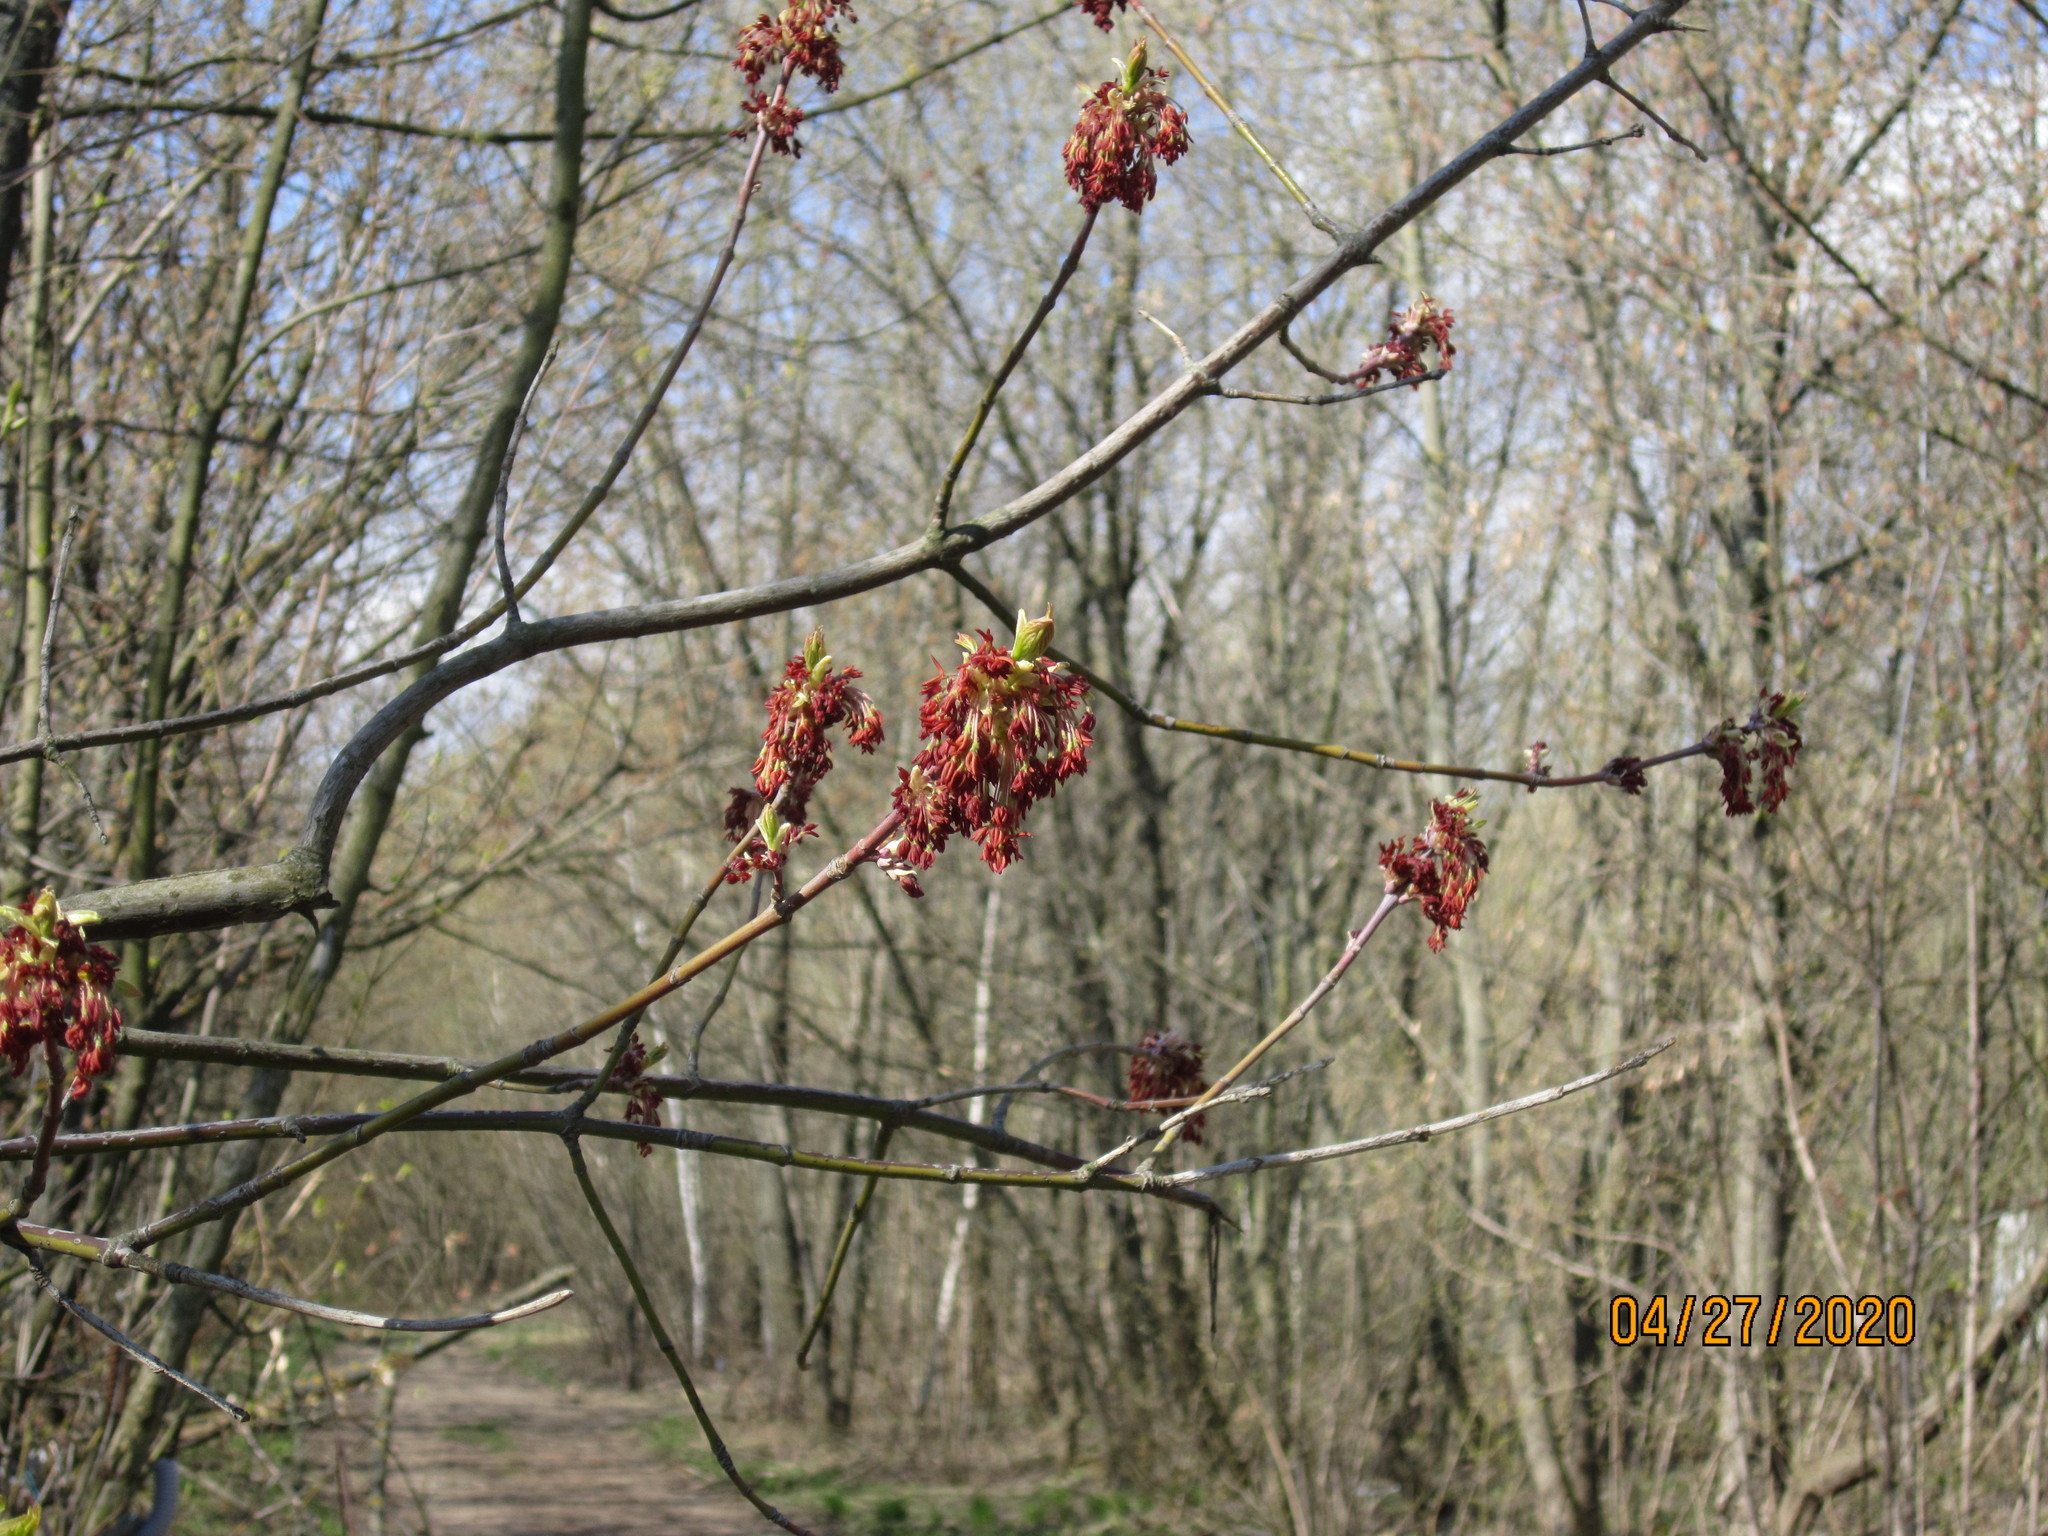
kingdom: Plantae
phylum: Tracheophyta
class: Magnoliopsida
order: Sapindales
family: Sapindaceae
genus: Acer
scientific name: Acer negundo
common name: Ashleaf maple
